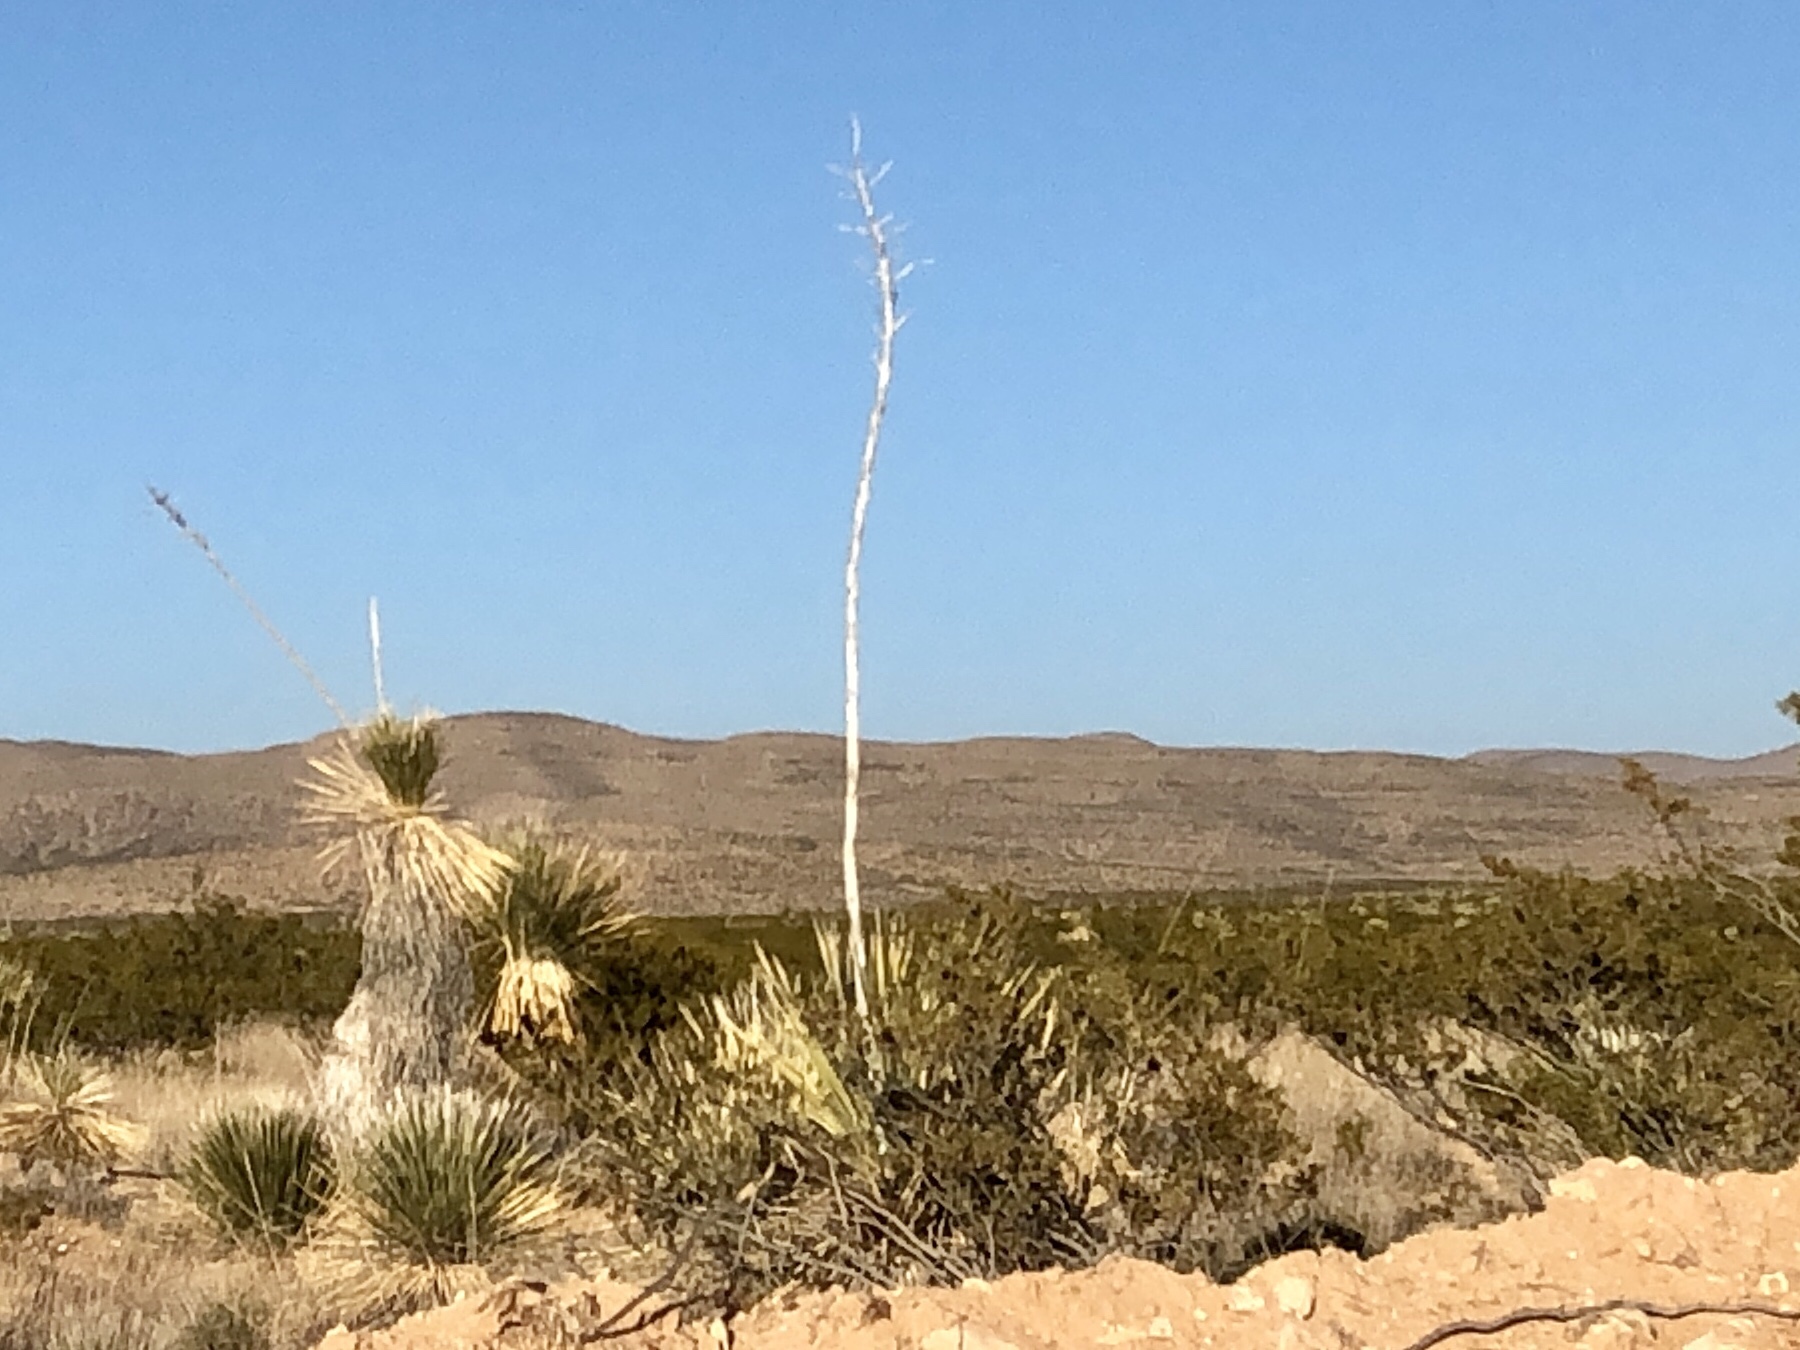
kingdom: Plantae
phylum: Tracheophyta
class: Liliopsida
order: Asparagales
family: Asparagaceae
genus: Yucca
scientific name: Yucca elata
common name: Palmella
